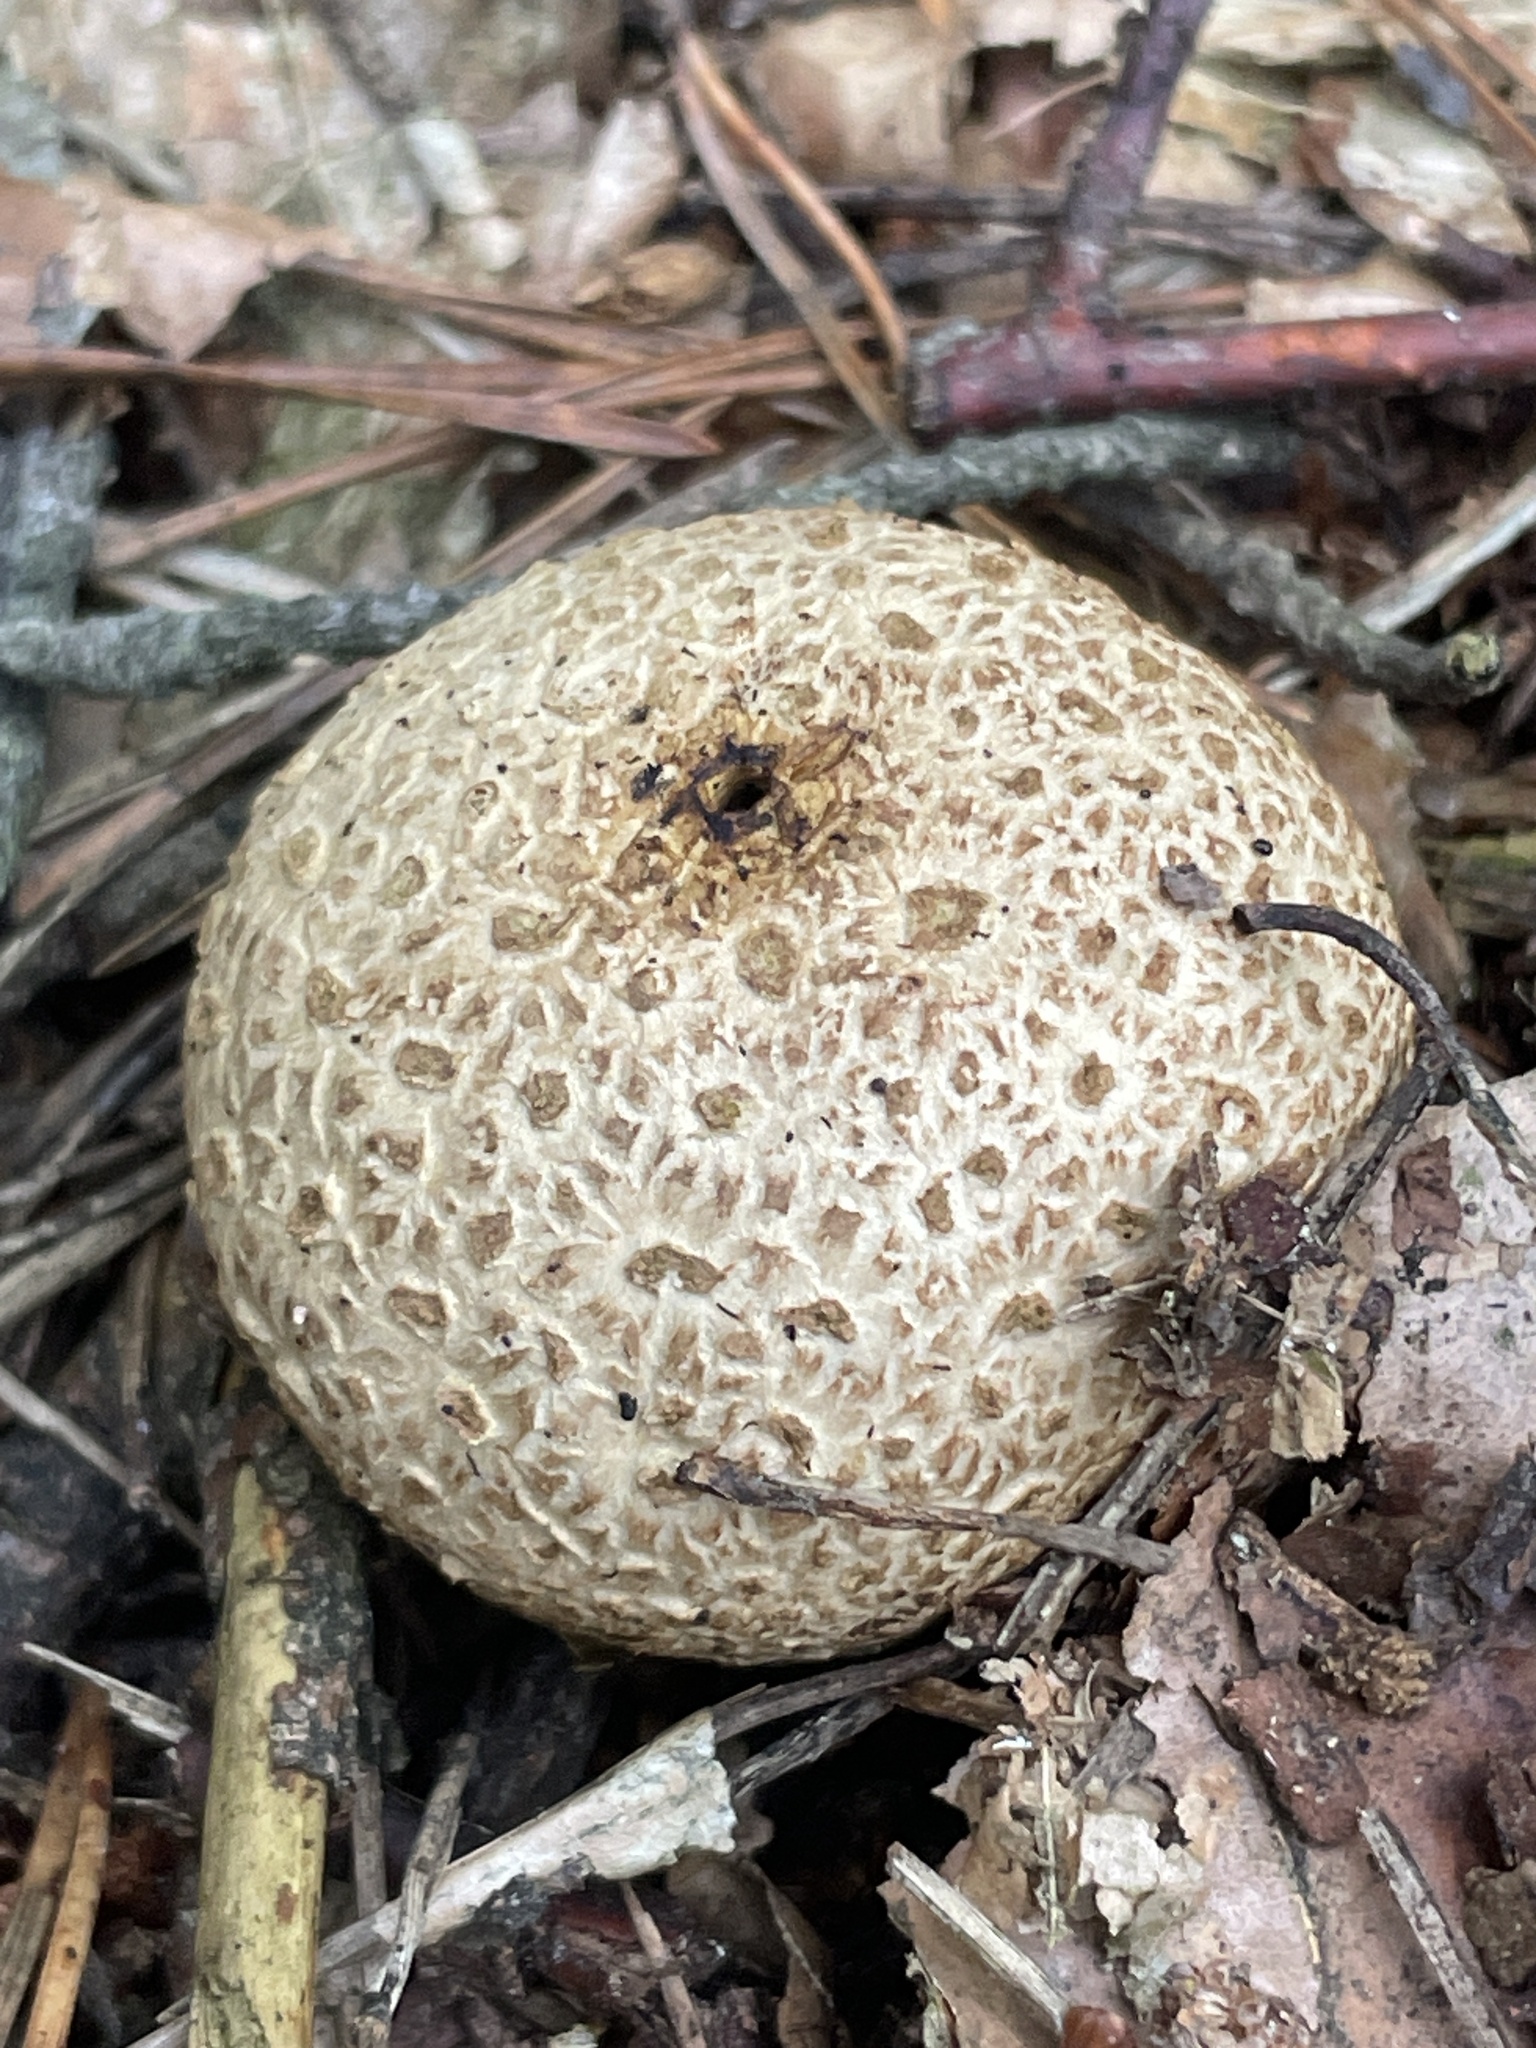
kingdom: Fungi
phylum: Basidiomycota
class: Agaricomycetes
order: Boletales
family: Sclerodermataceae
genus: Scleroderma
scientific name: Scleroderma citrinum
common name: Common earthball
